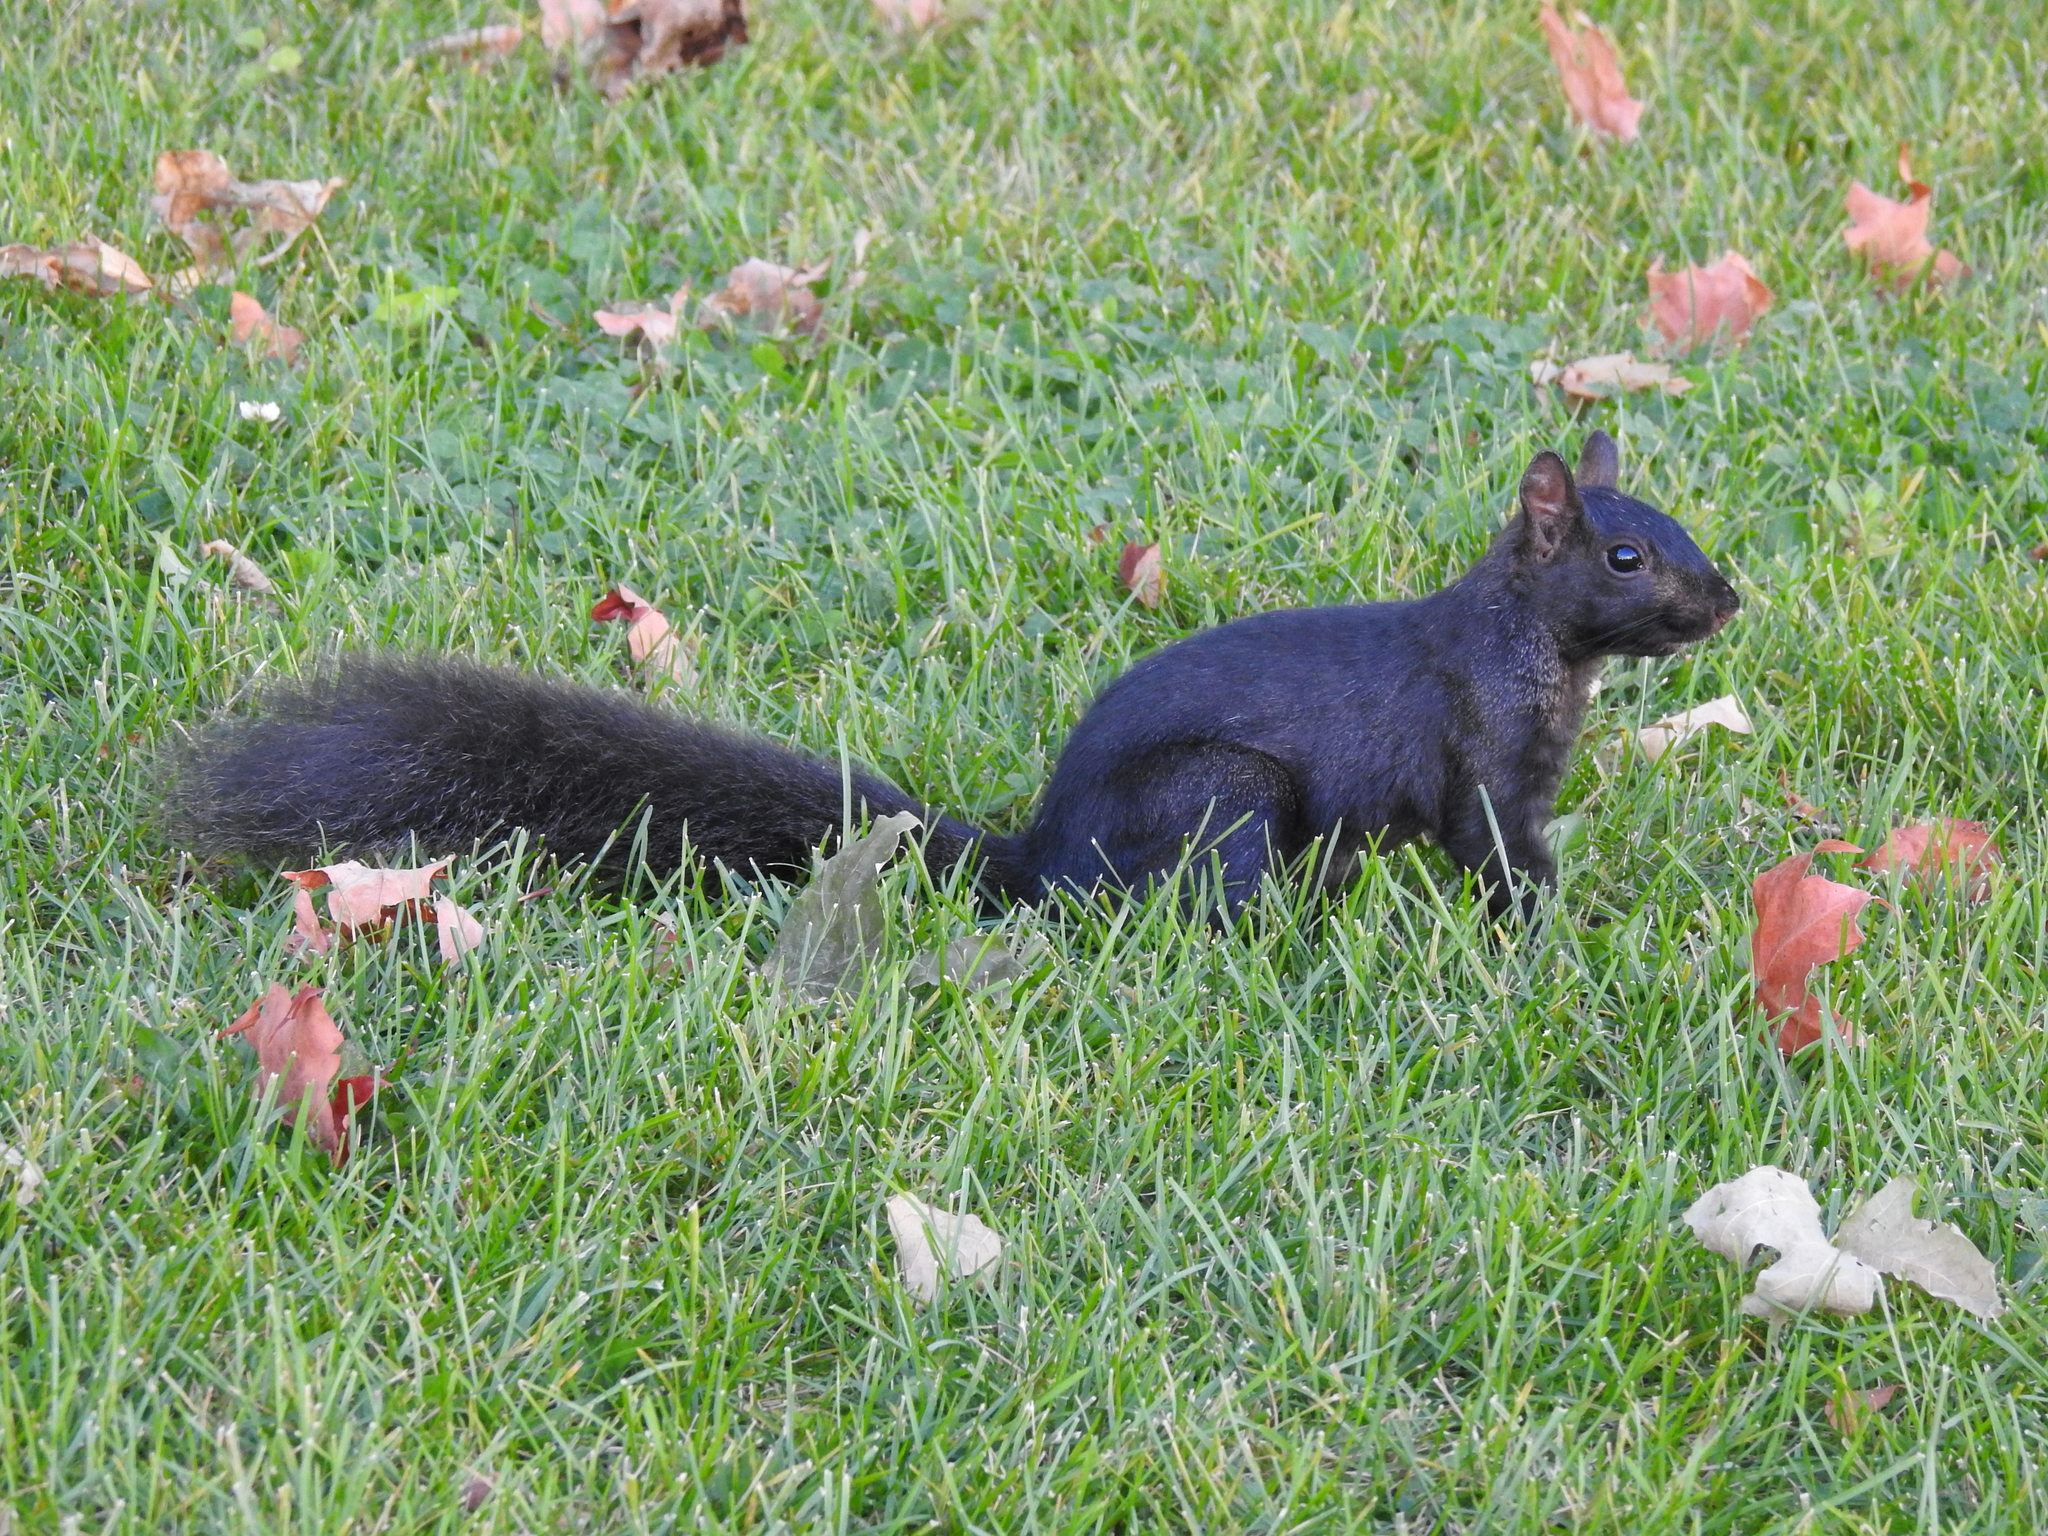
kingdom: Animalia
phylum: Chordata
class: Mammalia
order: Rodentia
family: Sciuridae
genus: Sciurus
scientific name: Sciurus carolinensis
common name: Eastern gray squirrel
